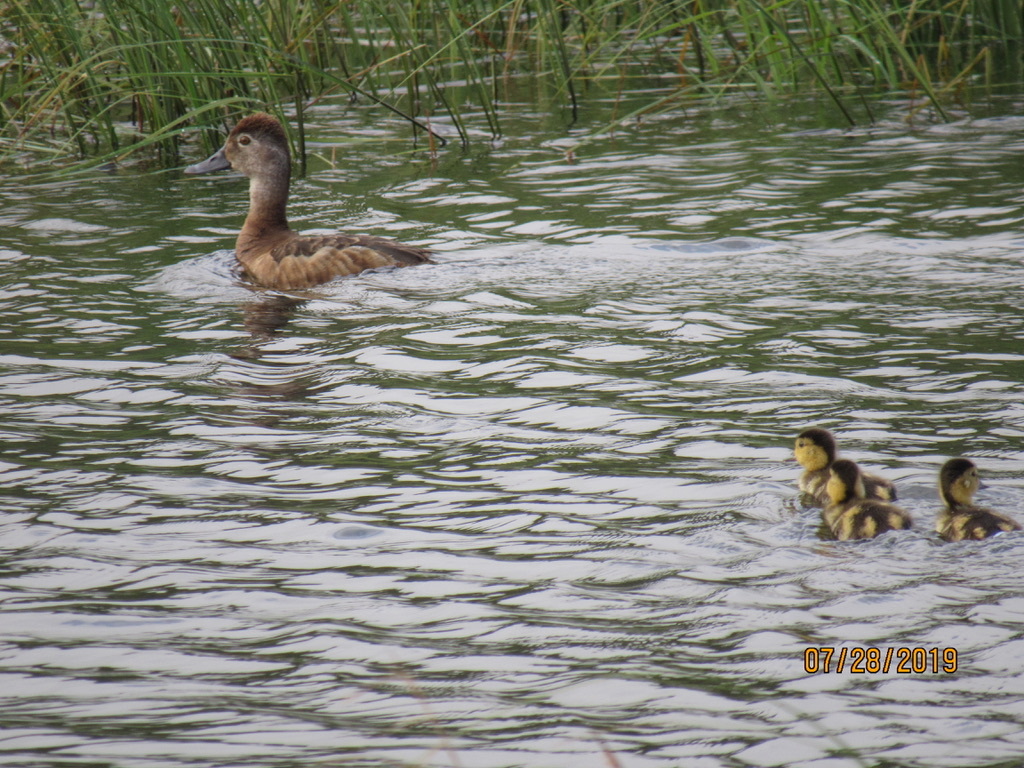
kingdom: Animalia
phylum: Chordata
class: Aves
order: Anseriformes
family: Anatidae
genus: Aythya
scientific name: Aythya collaris
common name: Ring-necked duck
